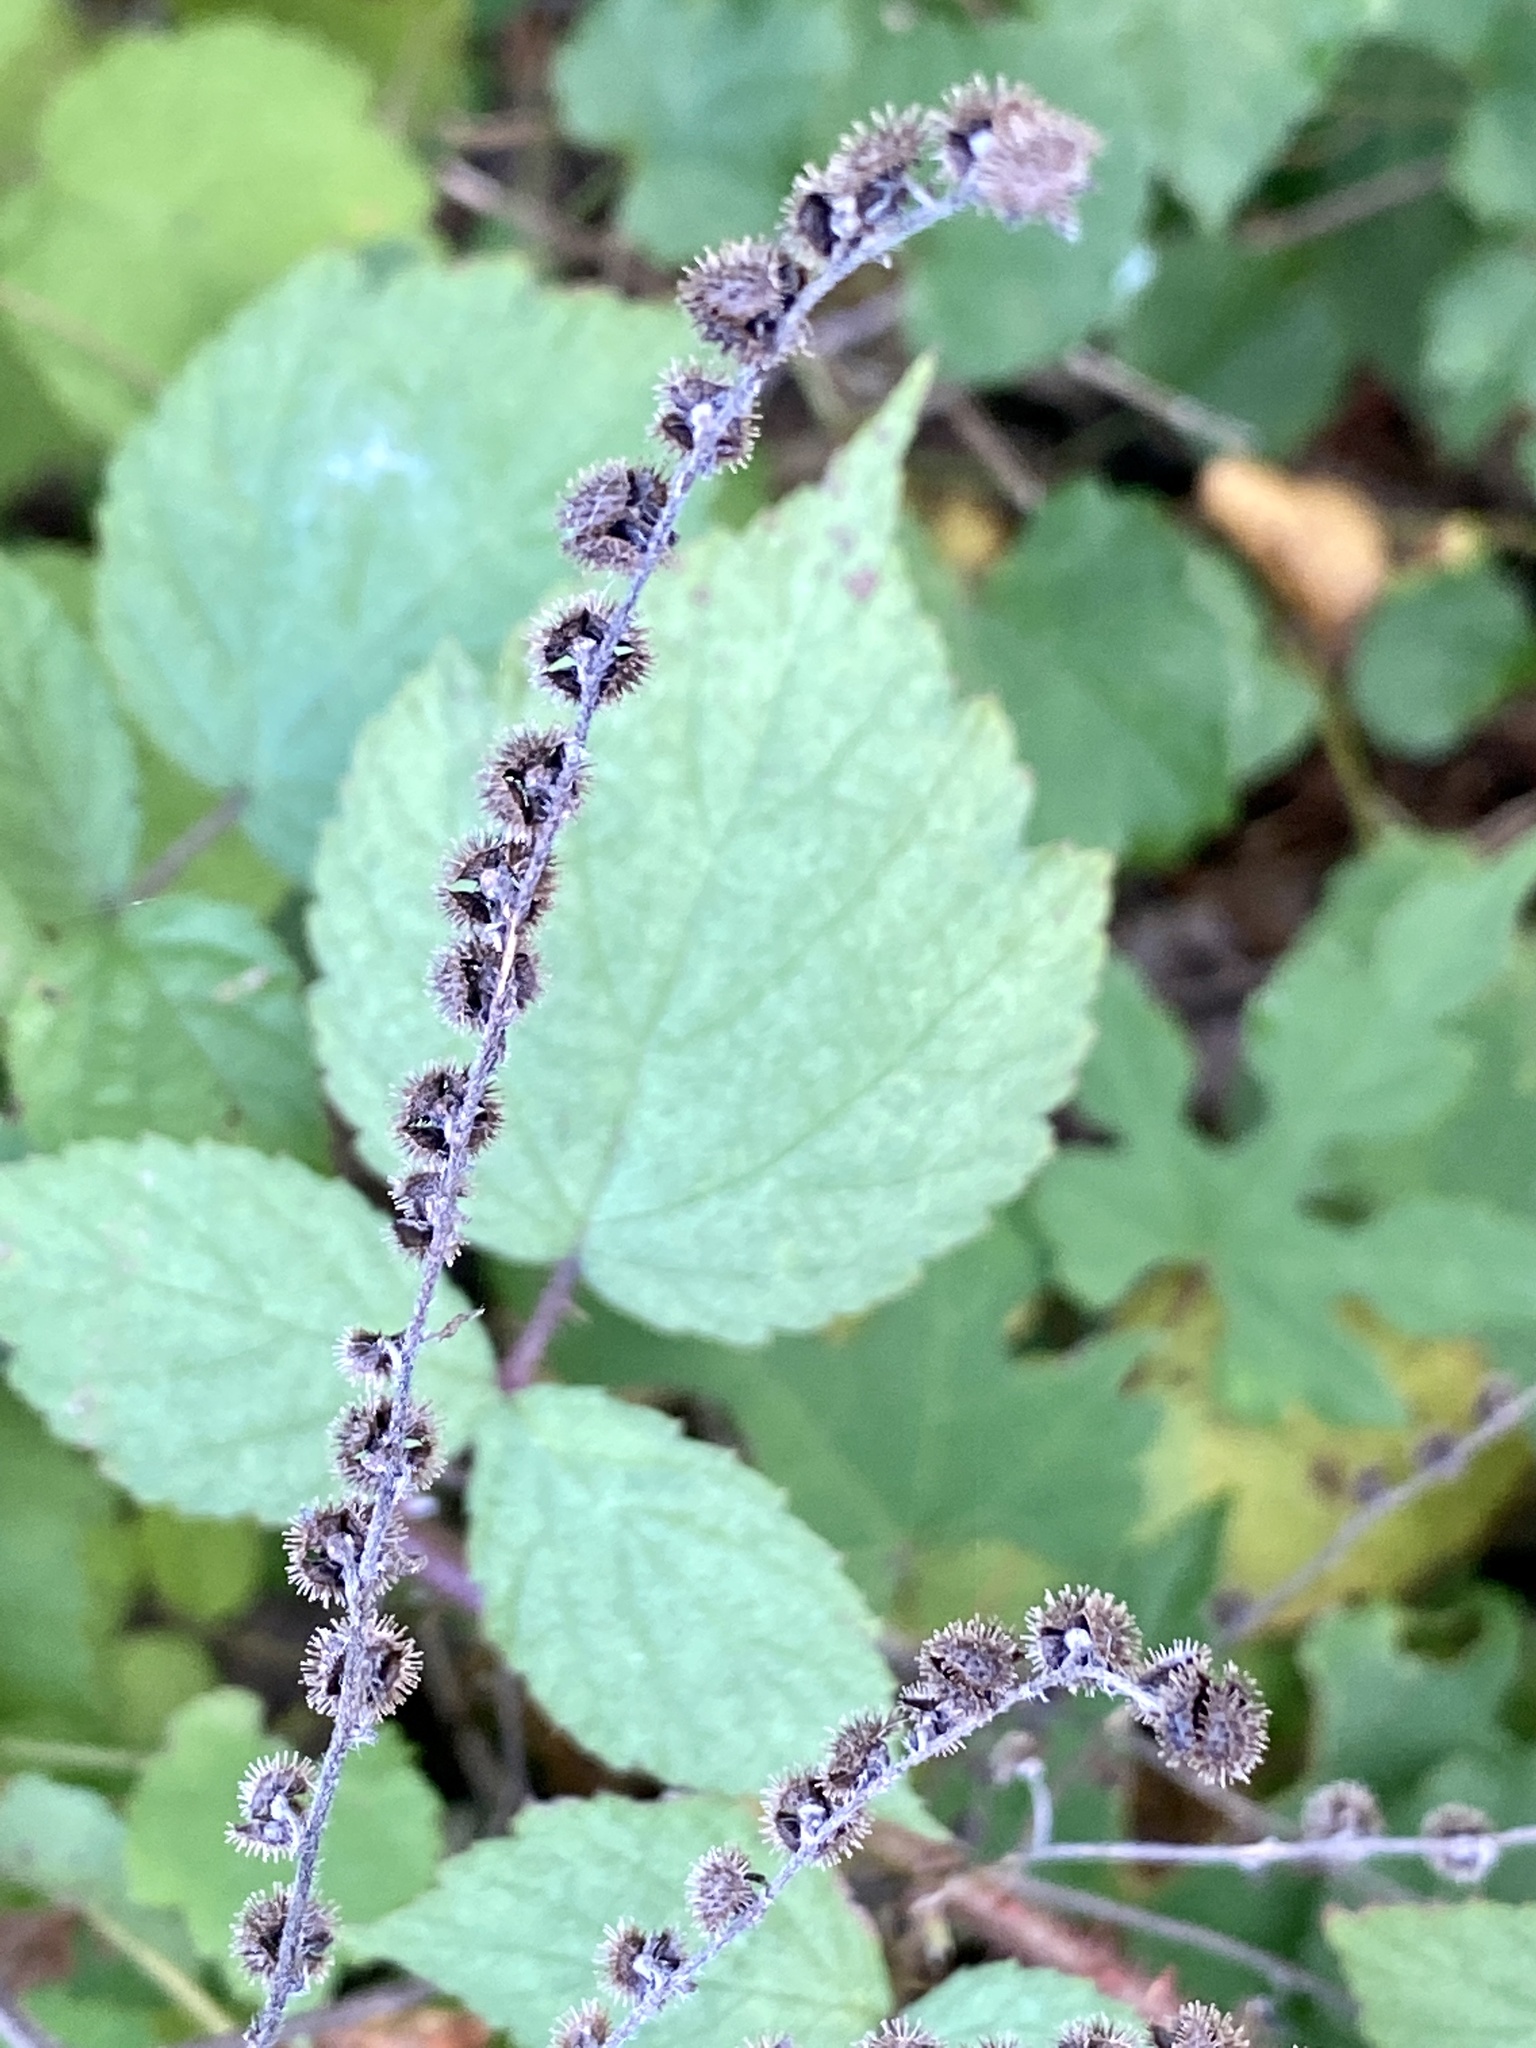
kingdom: Plantae
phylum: Tracheophyta
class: Magnoliopsida
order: Boraginales
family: Boraginaceae
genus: Hackelia
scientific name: Hackelia virginiana
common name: Beggar's-lice
